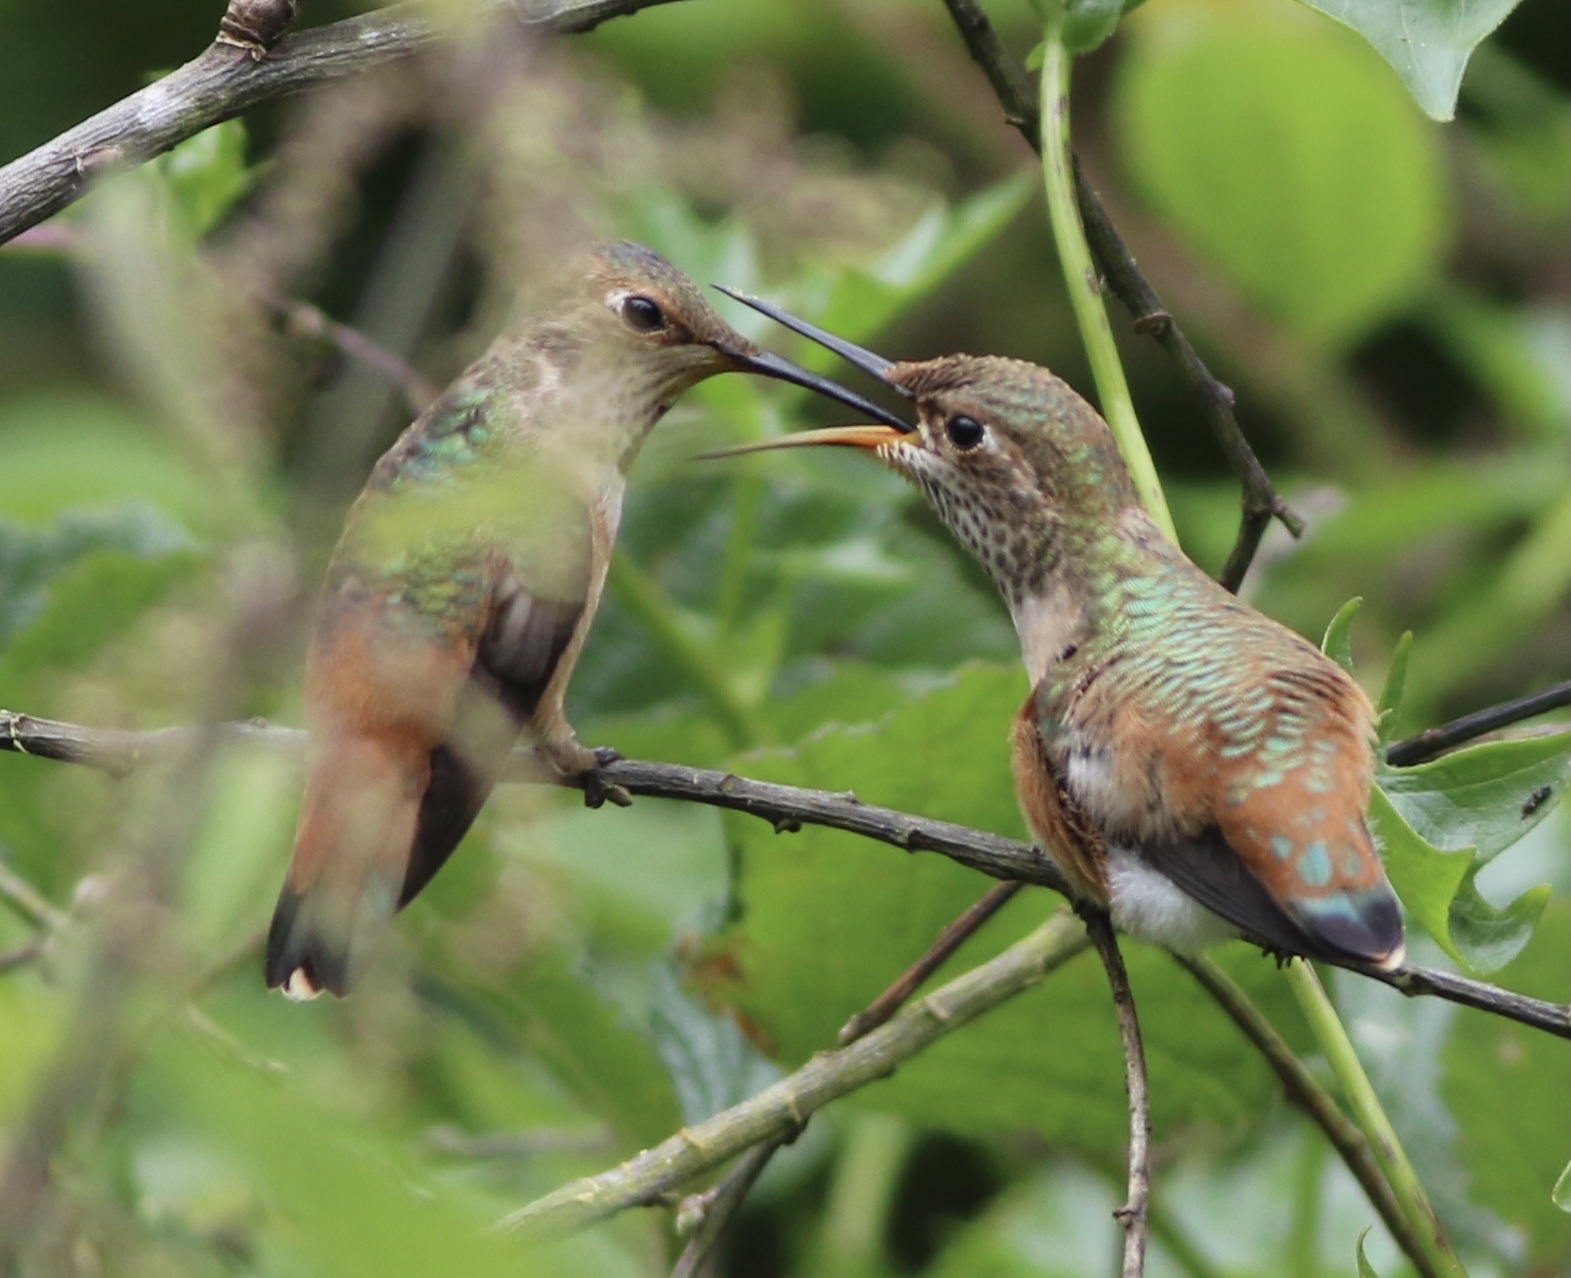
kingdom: Animalia
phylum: Chordata
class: Aves
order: Apodiformes
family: Trochilidae
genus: Selasphorus
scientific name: Selasphorus sasin
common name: Allen's hummingbird
